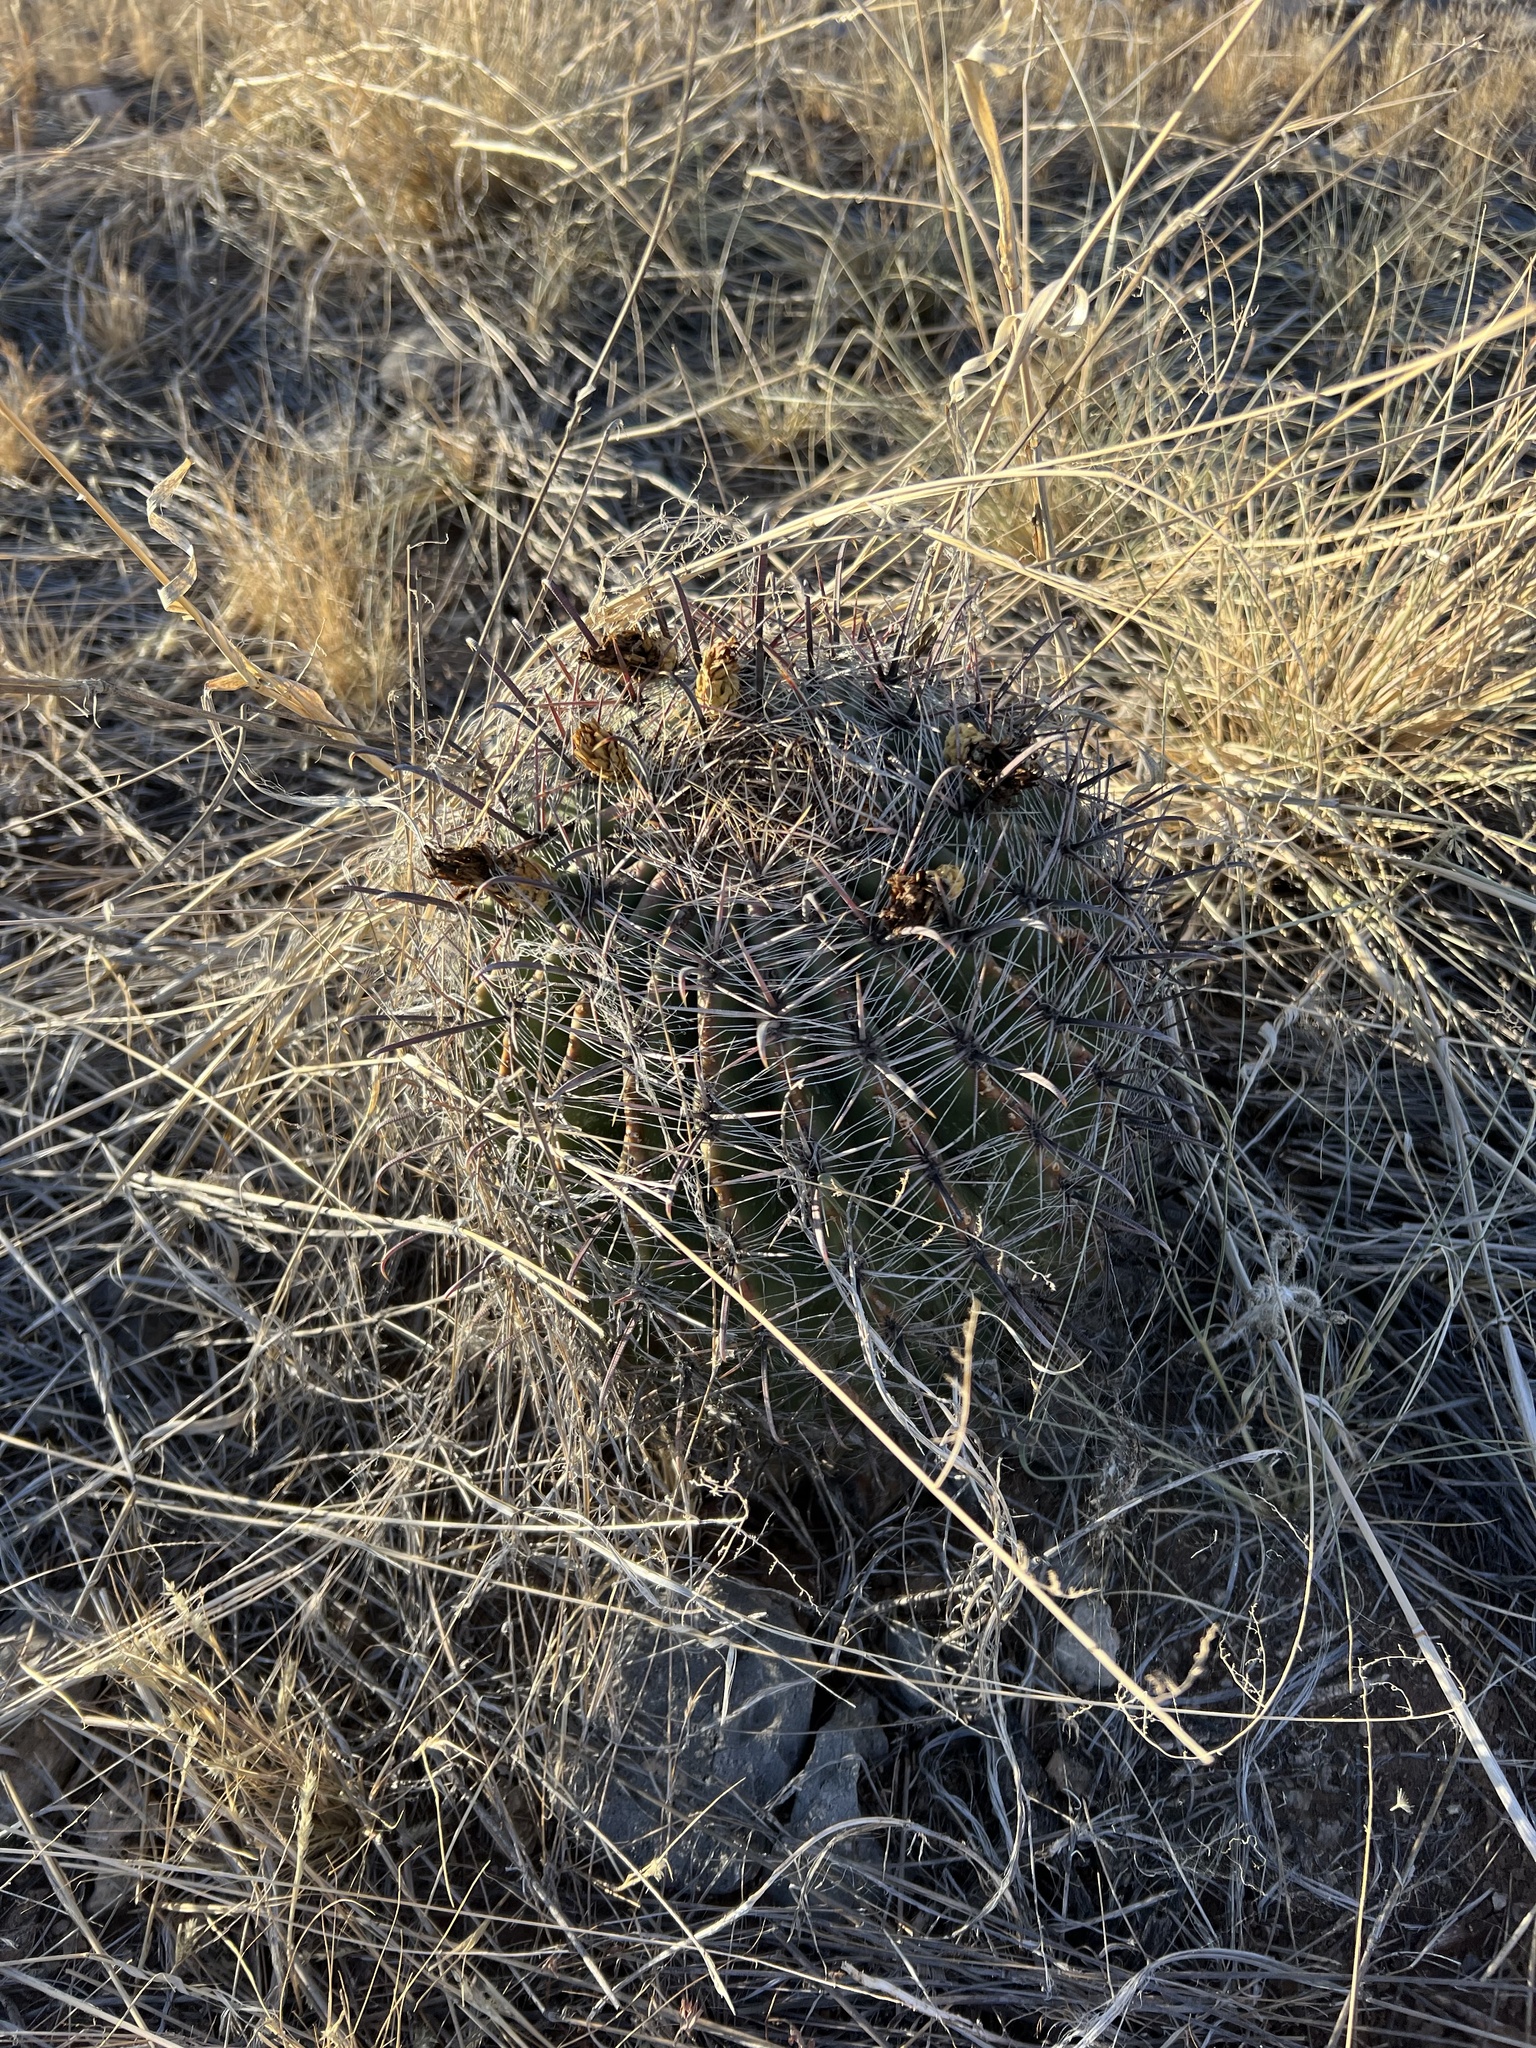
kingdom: Plantae
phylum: Tracheophyta
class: Magnoliopsida
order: Caryophyllales
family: Cactaceae
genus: Ferocactus
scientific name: Ferocactus wislizeni
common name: Candy barrel cactus
